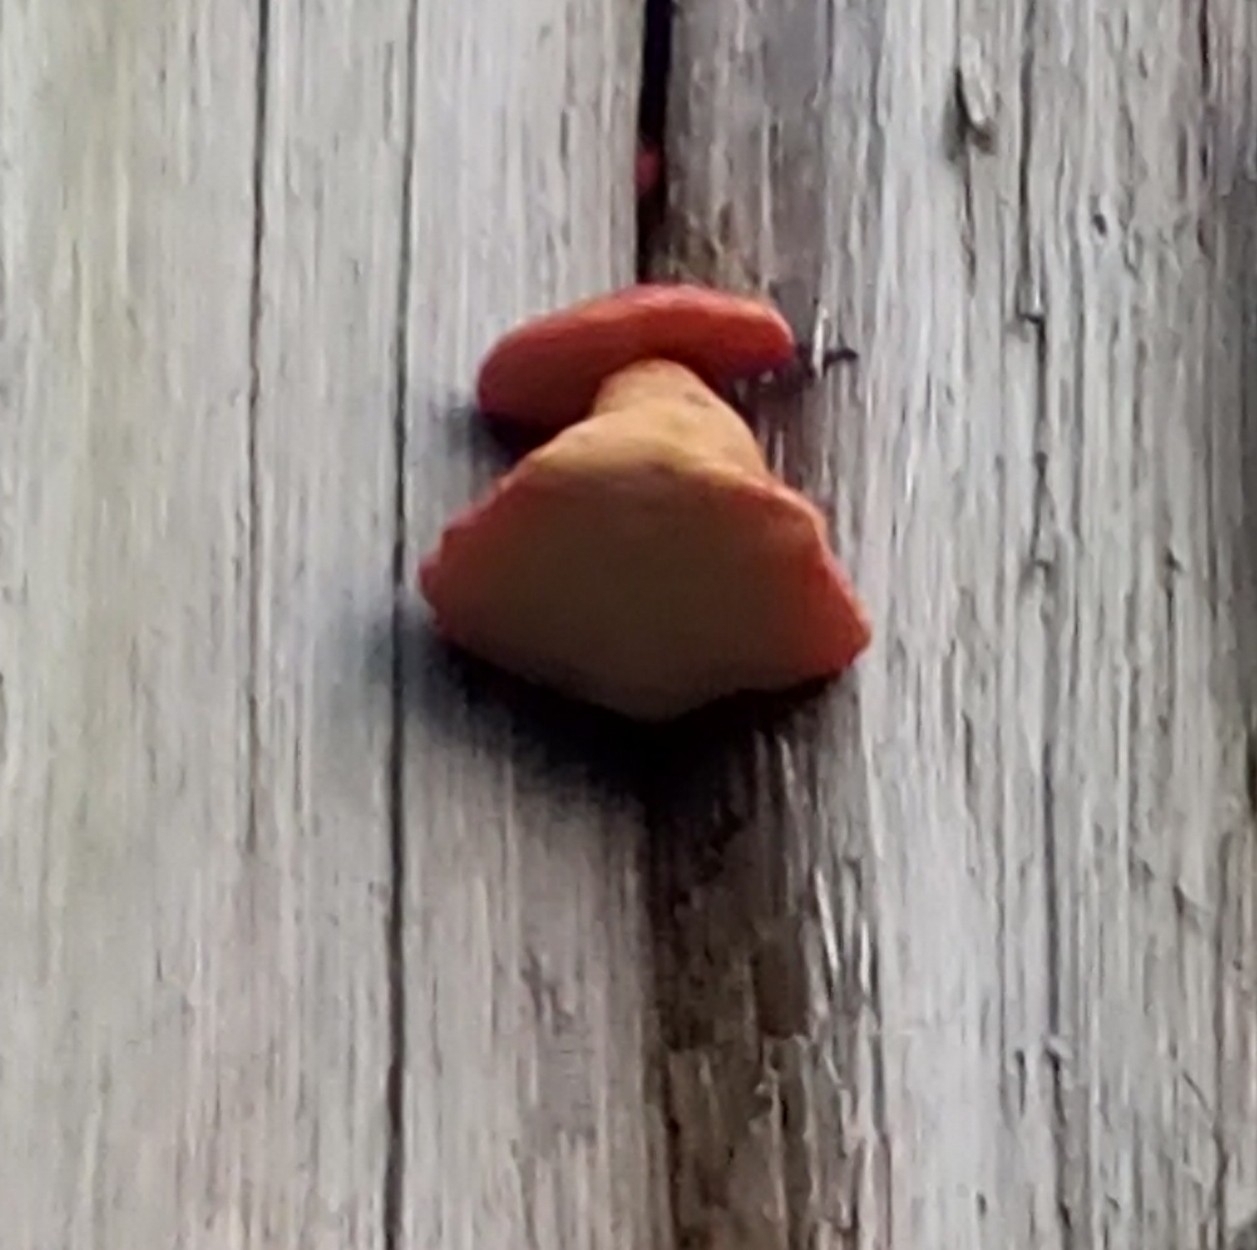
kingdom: Fungi
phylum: Basidiomycota
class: Agaricomycetes
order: Agaricales
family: Fistulinaceae
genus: Fistulina
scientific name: Fistulina hepatica
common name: Beef-steak fungus
